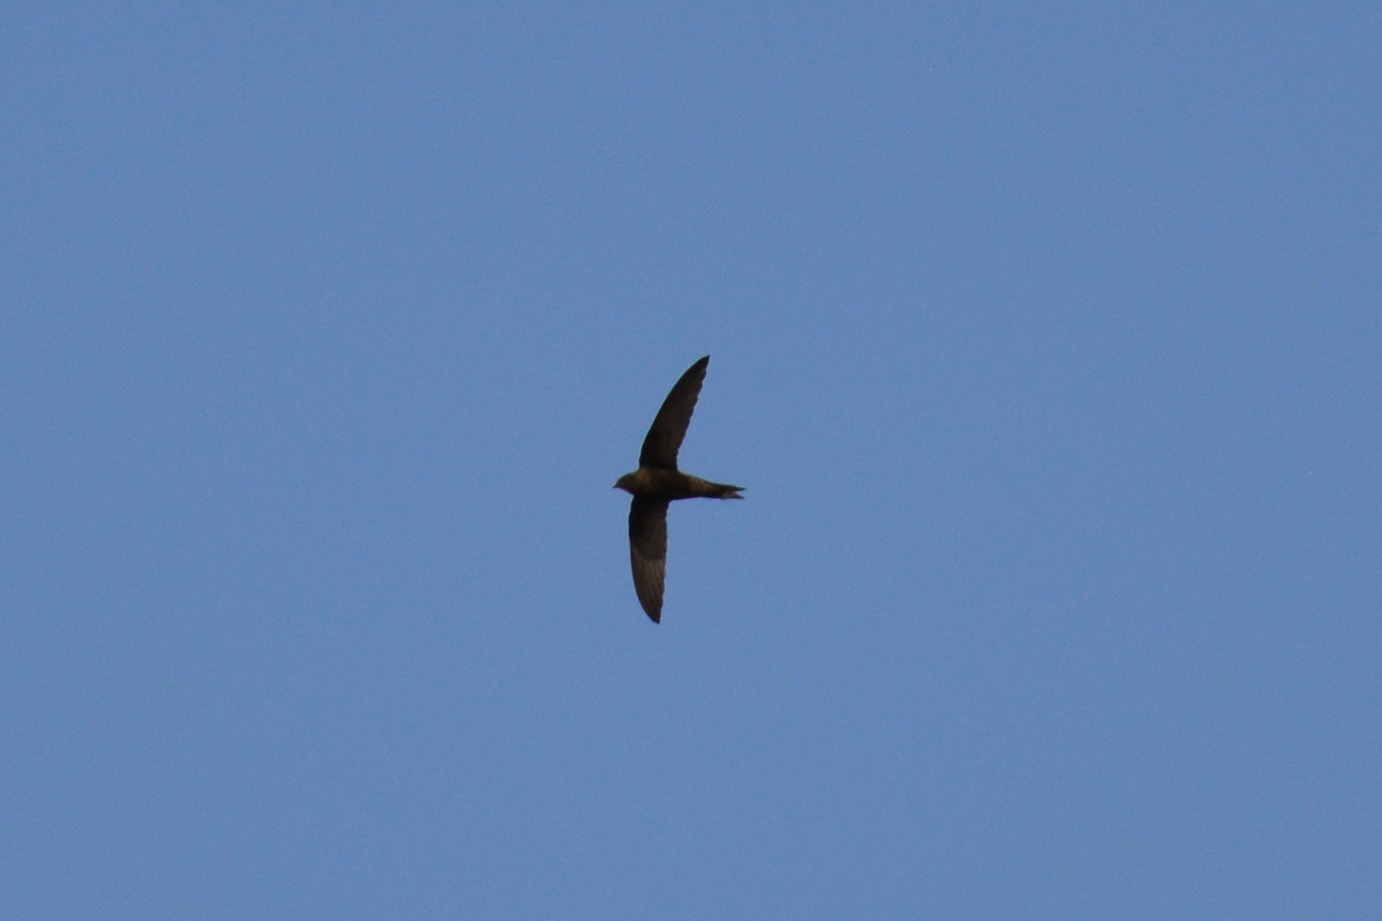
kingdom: Animalia
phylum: Chordata
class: Aves
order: Apodiformes
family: Apodidae
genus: Apus
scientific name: Apus apus
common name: Common swift
